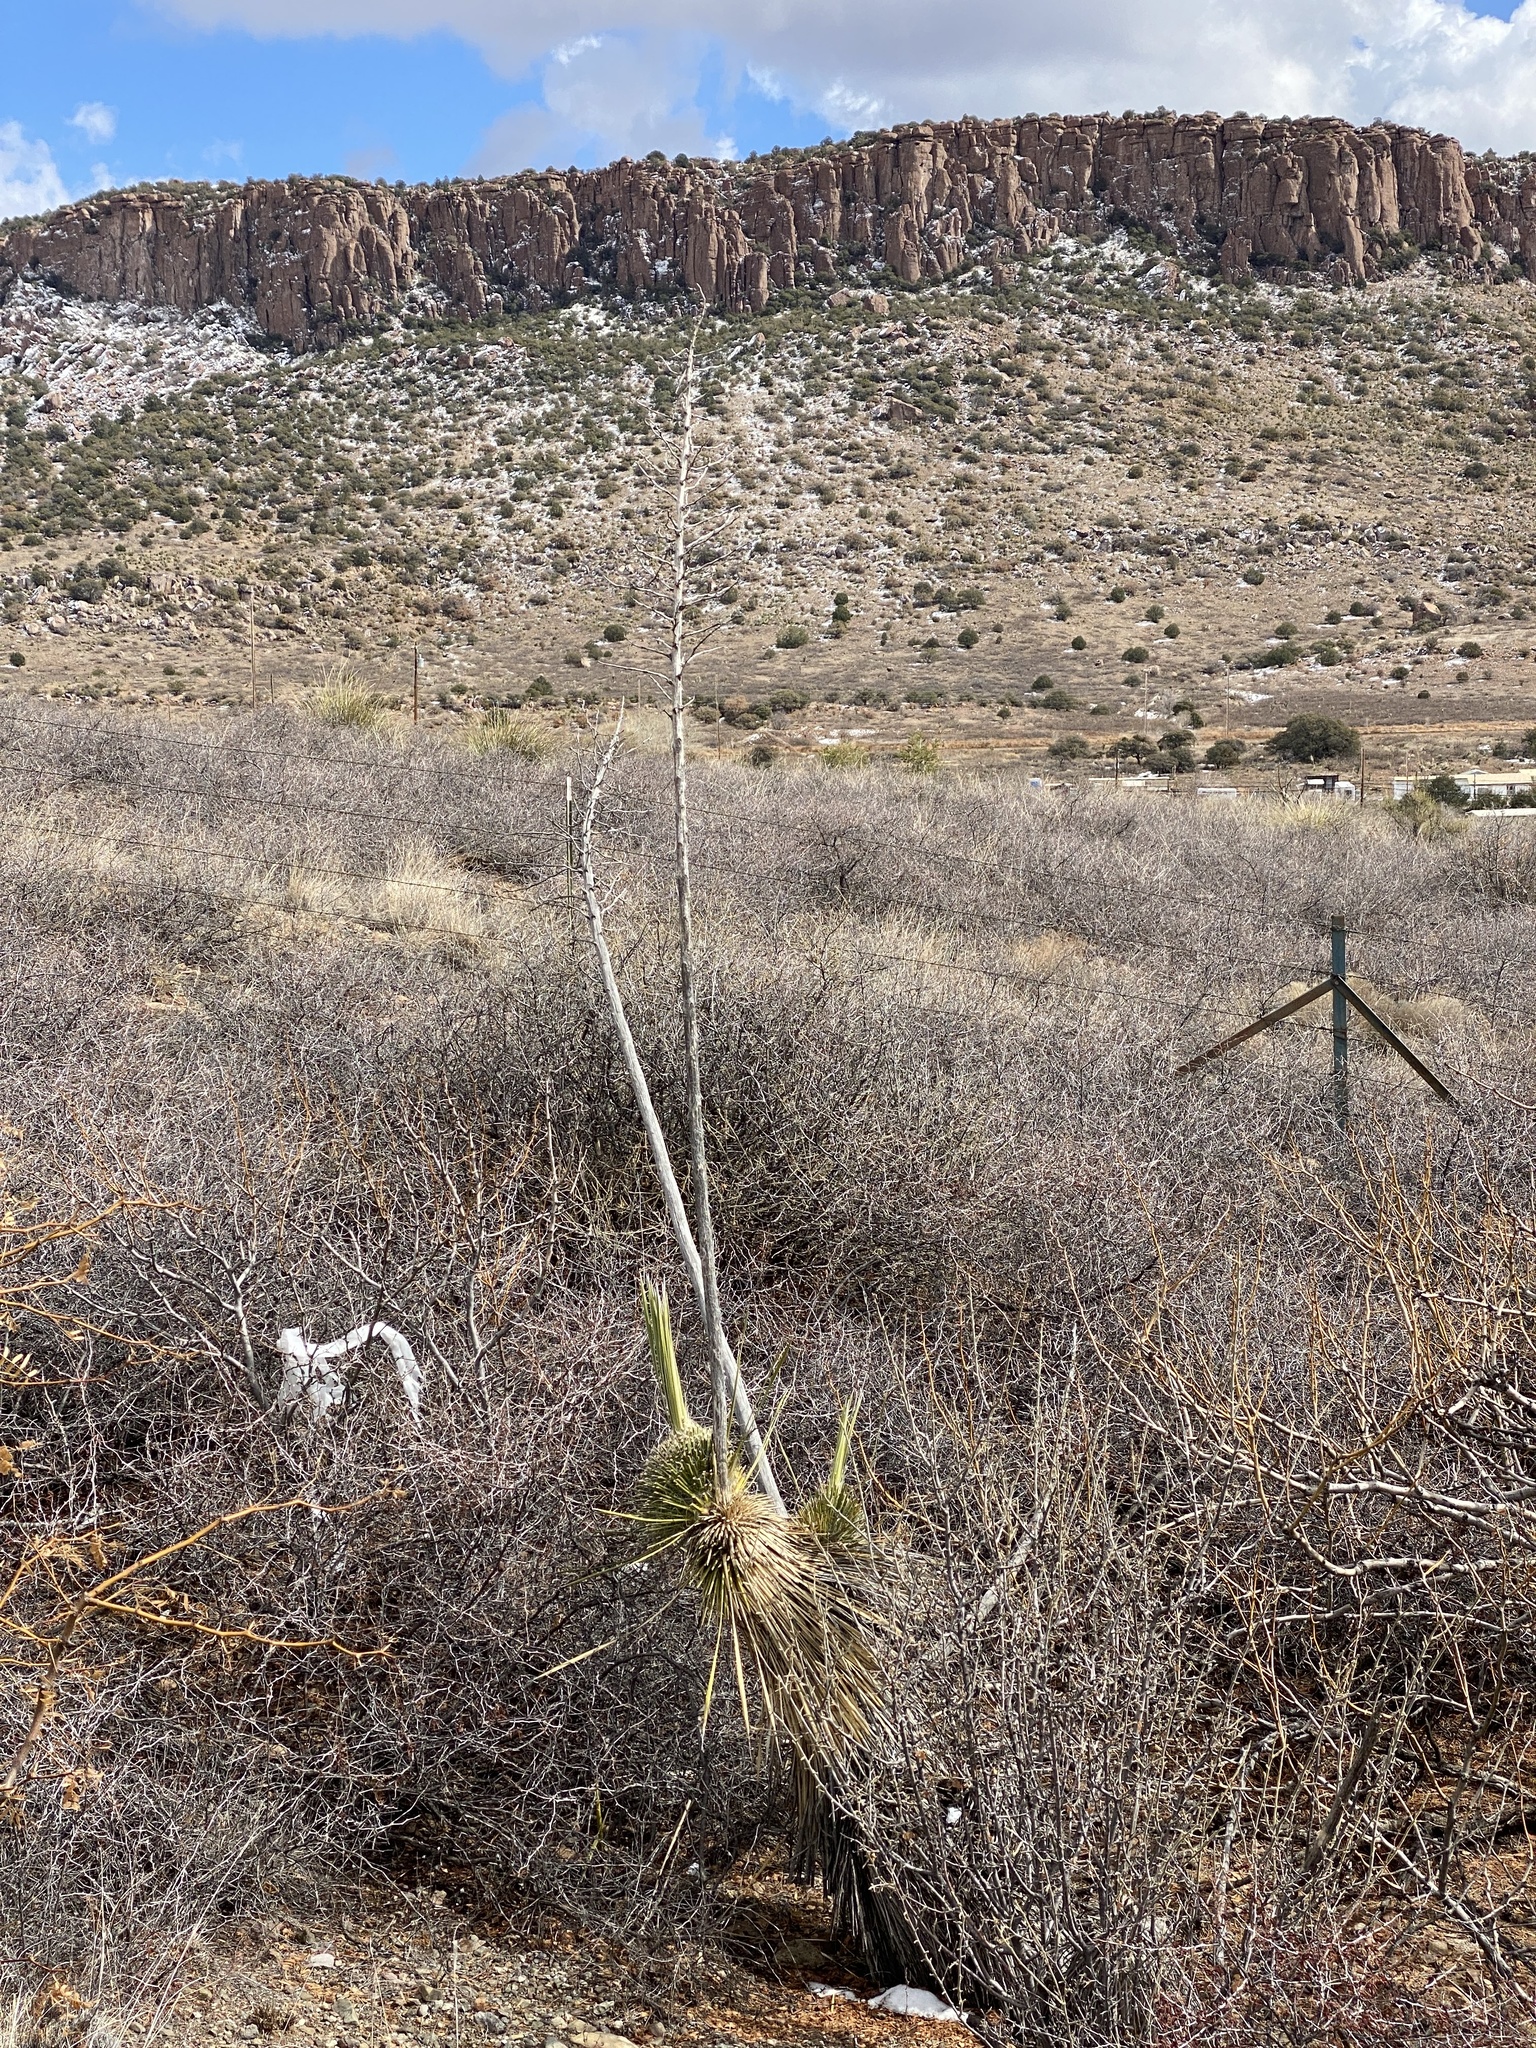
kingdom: Plantae
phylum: Tracheophyta
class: Liliopsida
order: Asparagales
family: Asparagaceae
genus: Yucca
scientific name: Yucca elata
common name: Palmella
